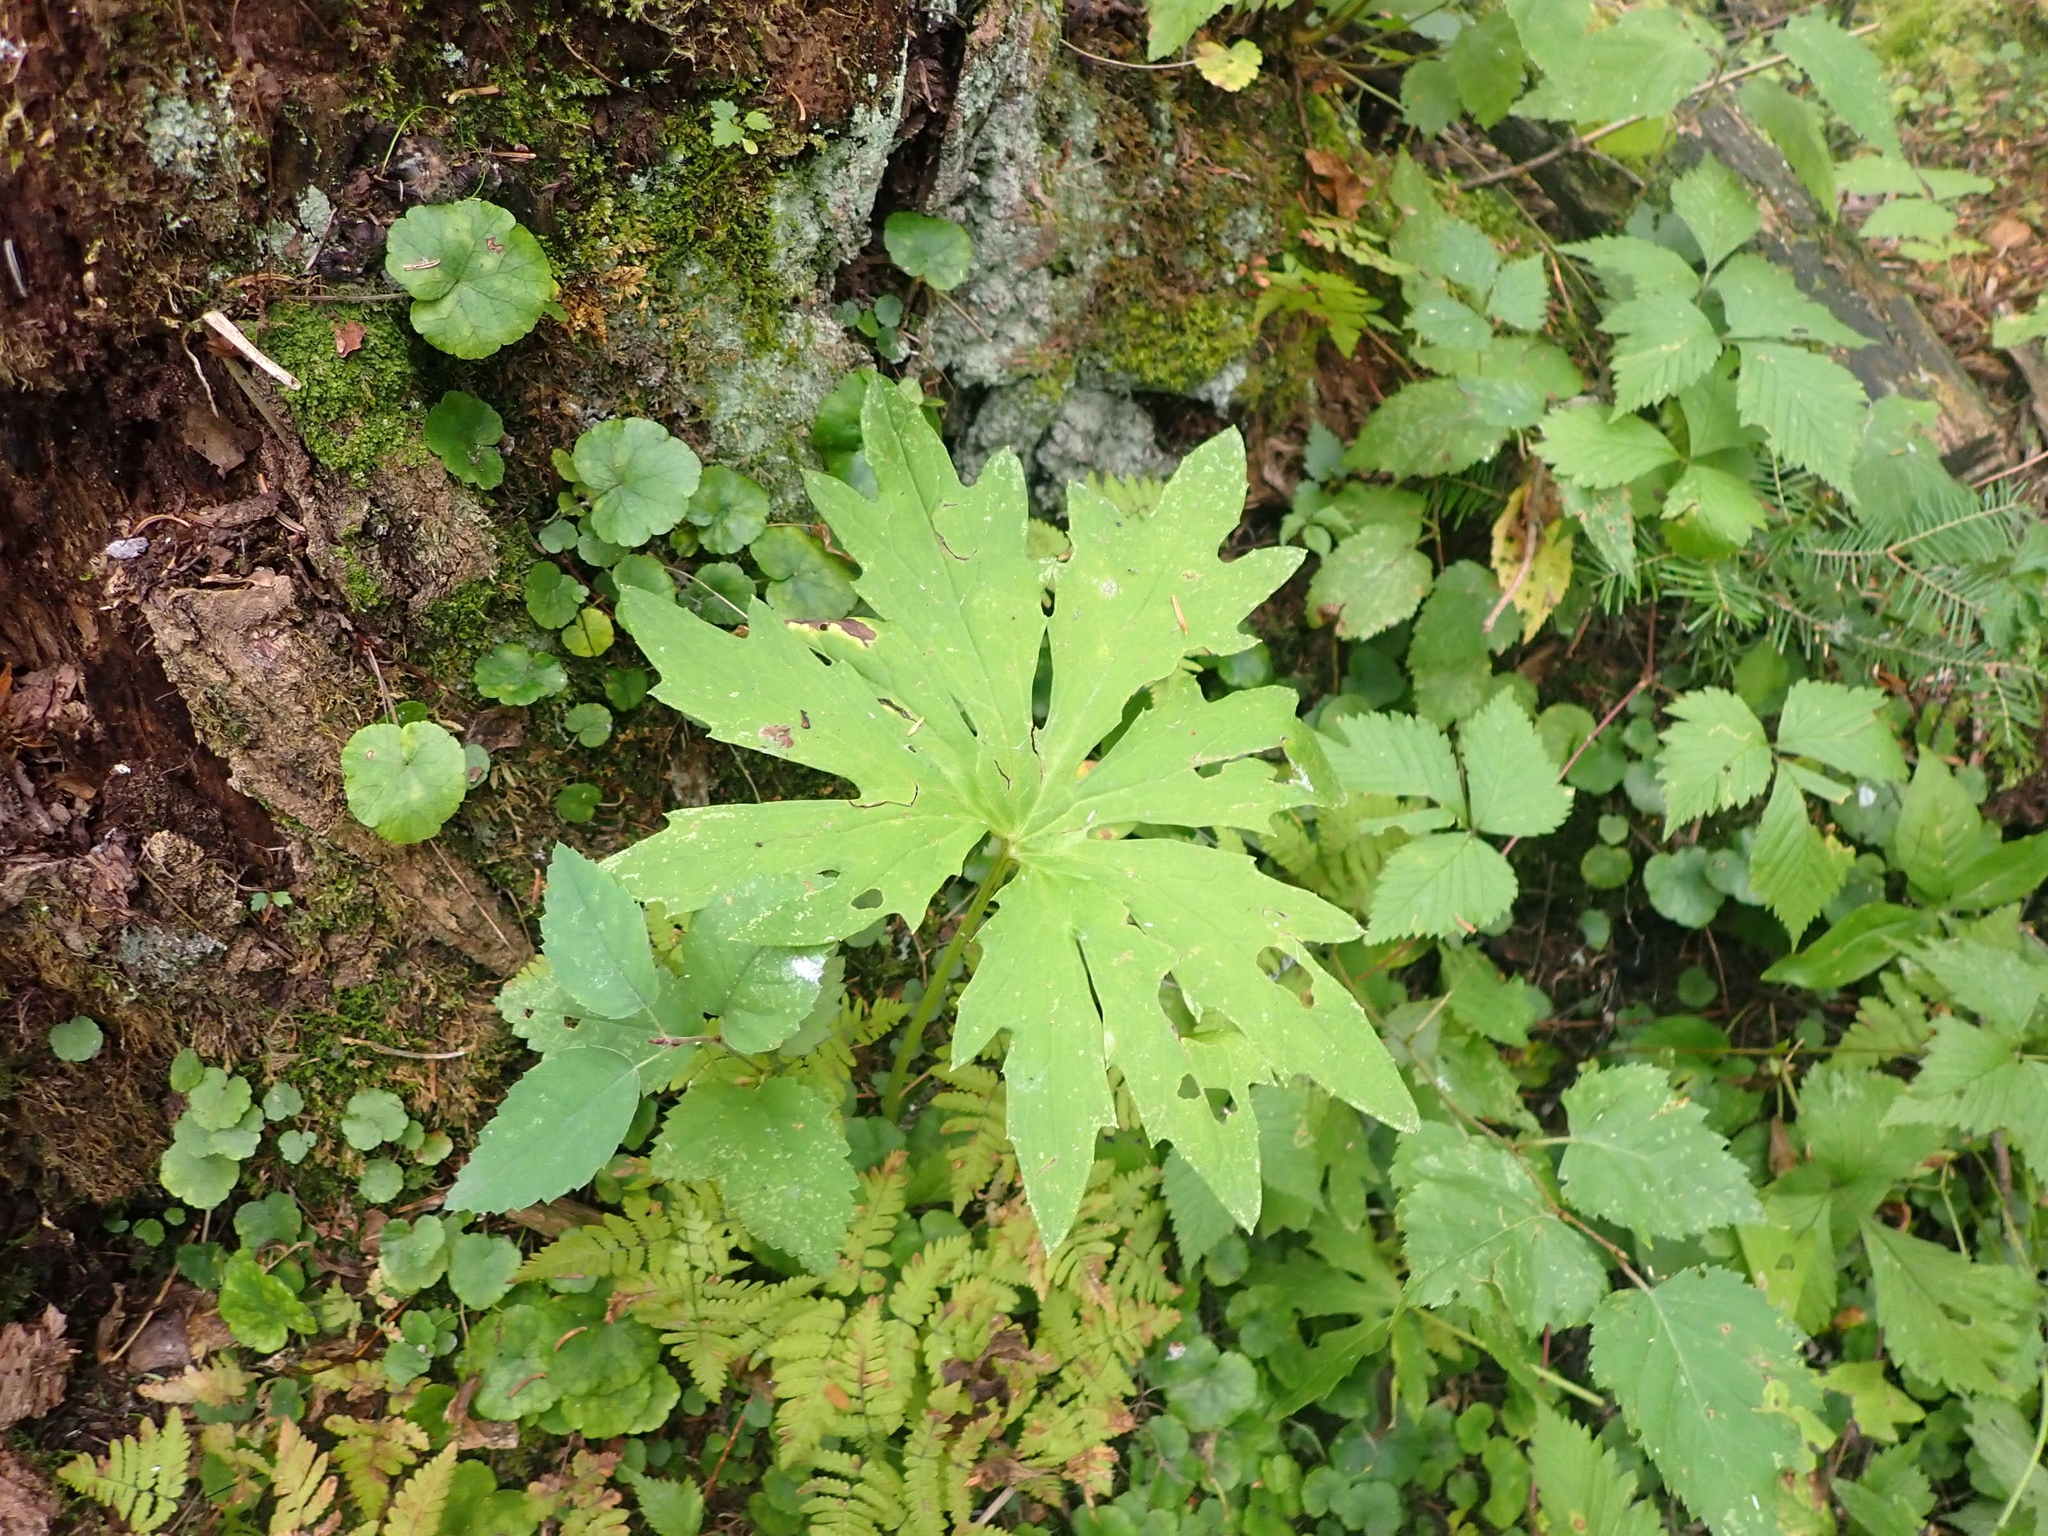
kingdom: Plantae
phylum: Tracheophyta
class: Magnoliopsida
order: Asterales
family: Asteraceae
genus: Petasites
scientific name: Petasites frigidus
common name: Arctic butterbur
